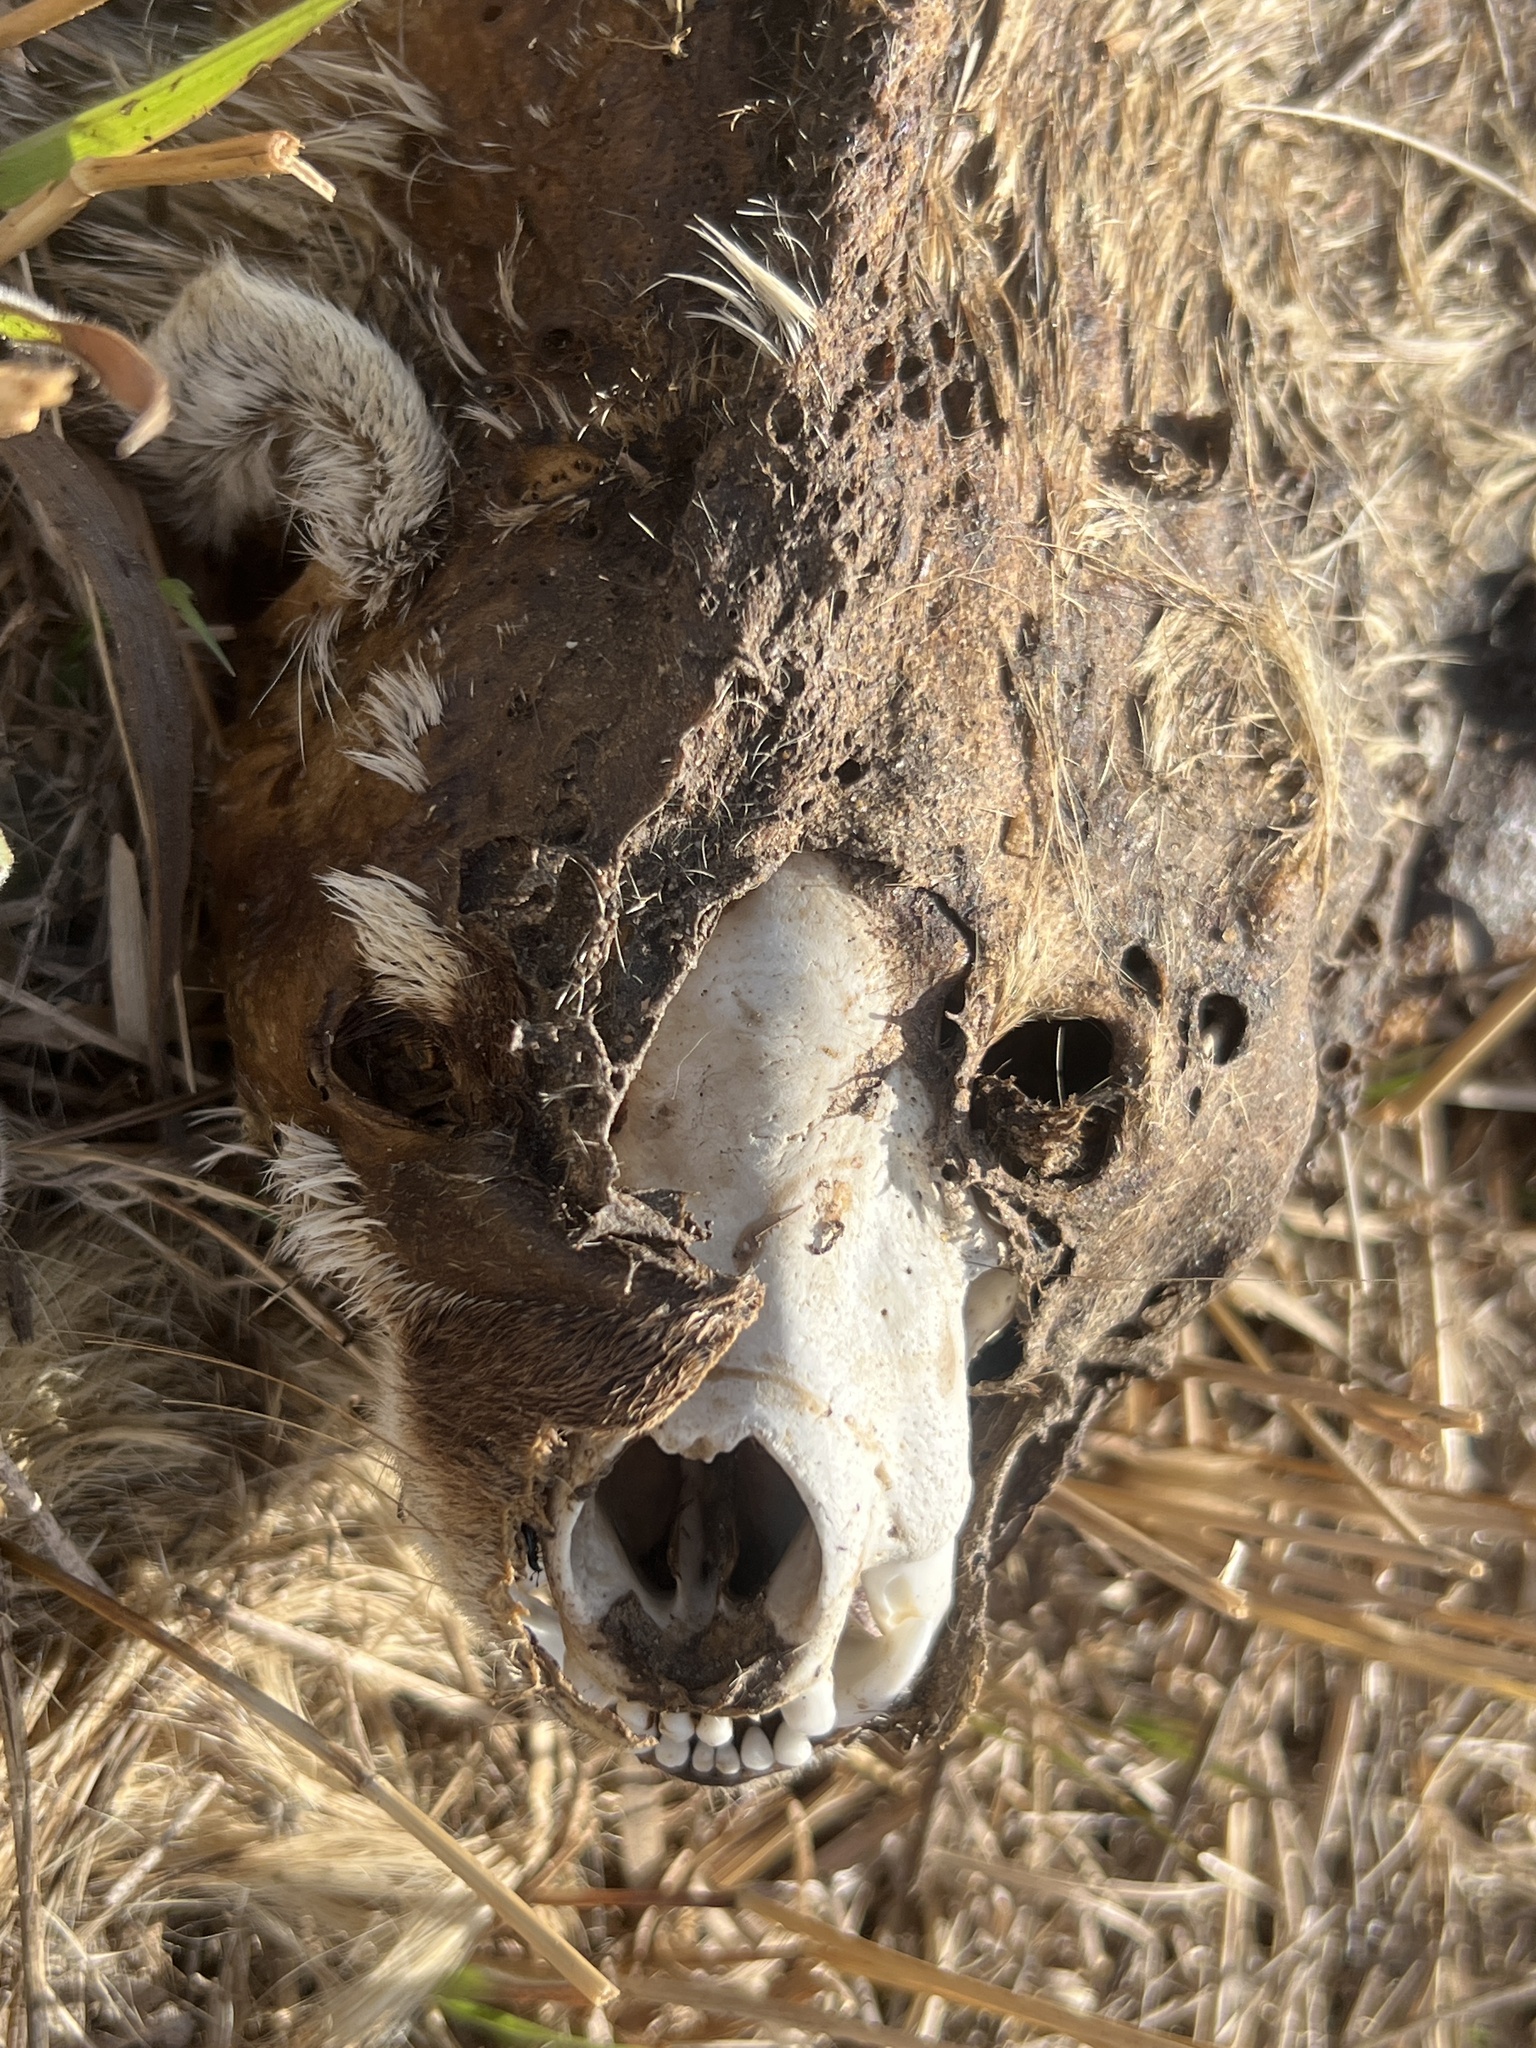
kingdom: Animalia
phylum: Chordata
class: Mammalia
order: Carnivora
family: Mustelidae
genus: Taxidea
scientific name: Taxidea taxus
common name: American badger
